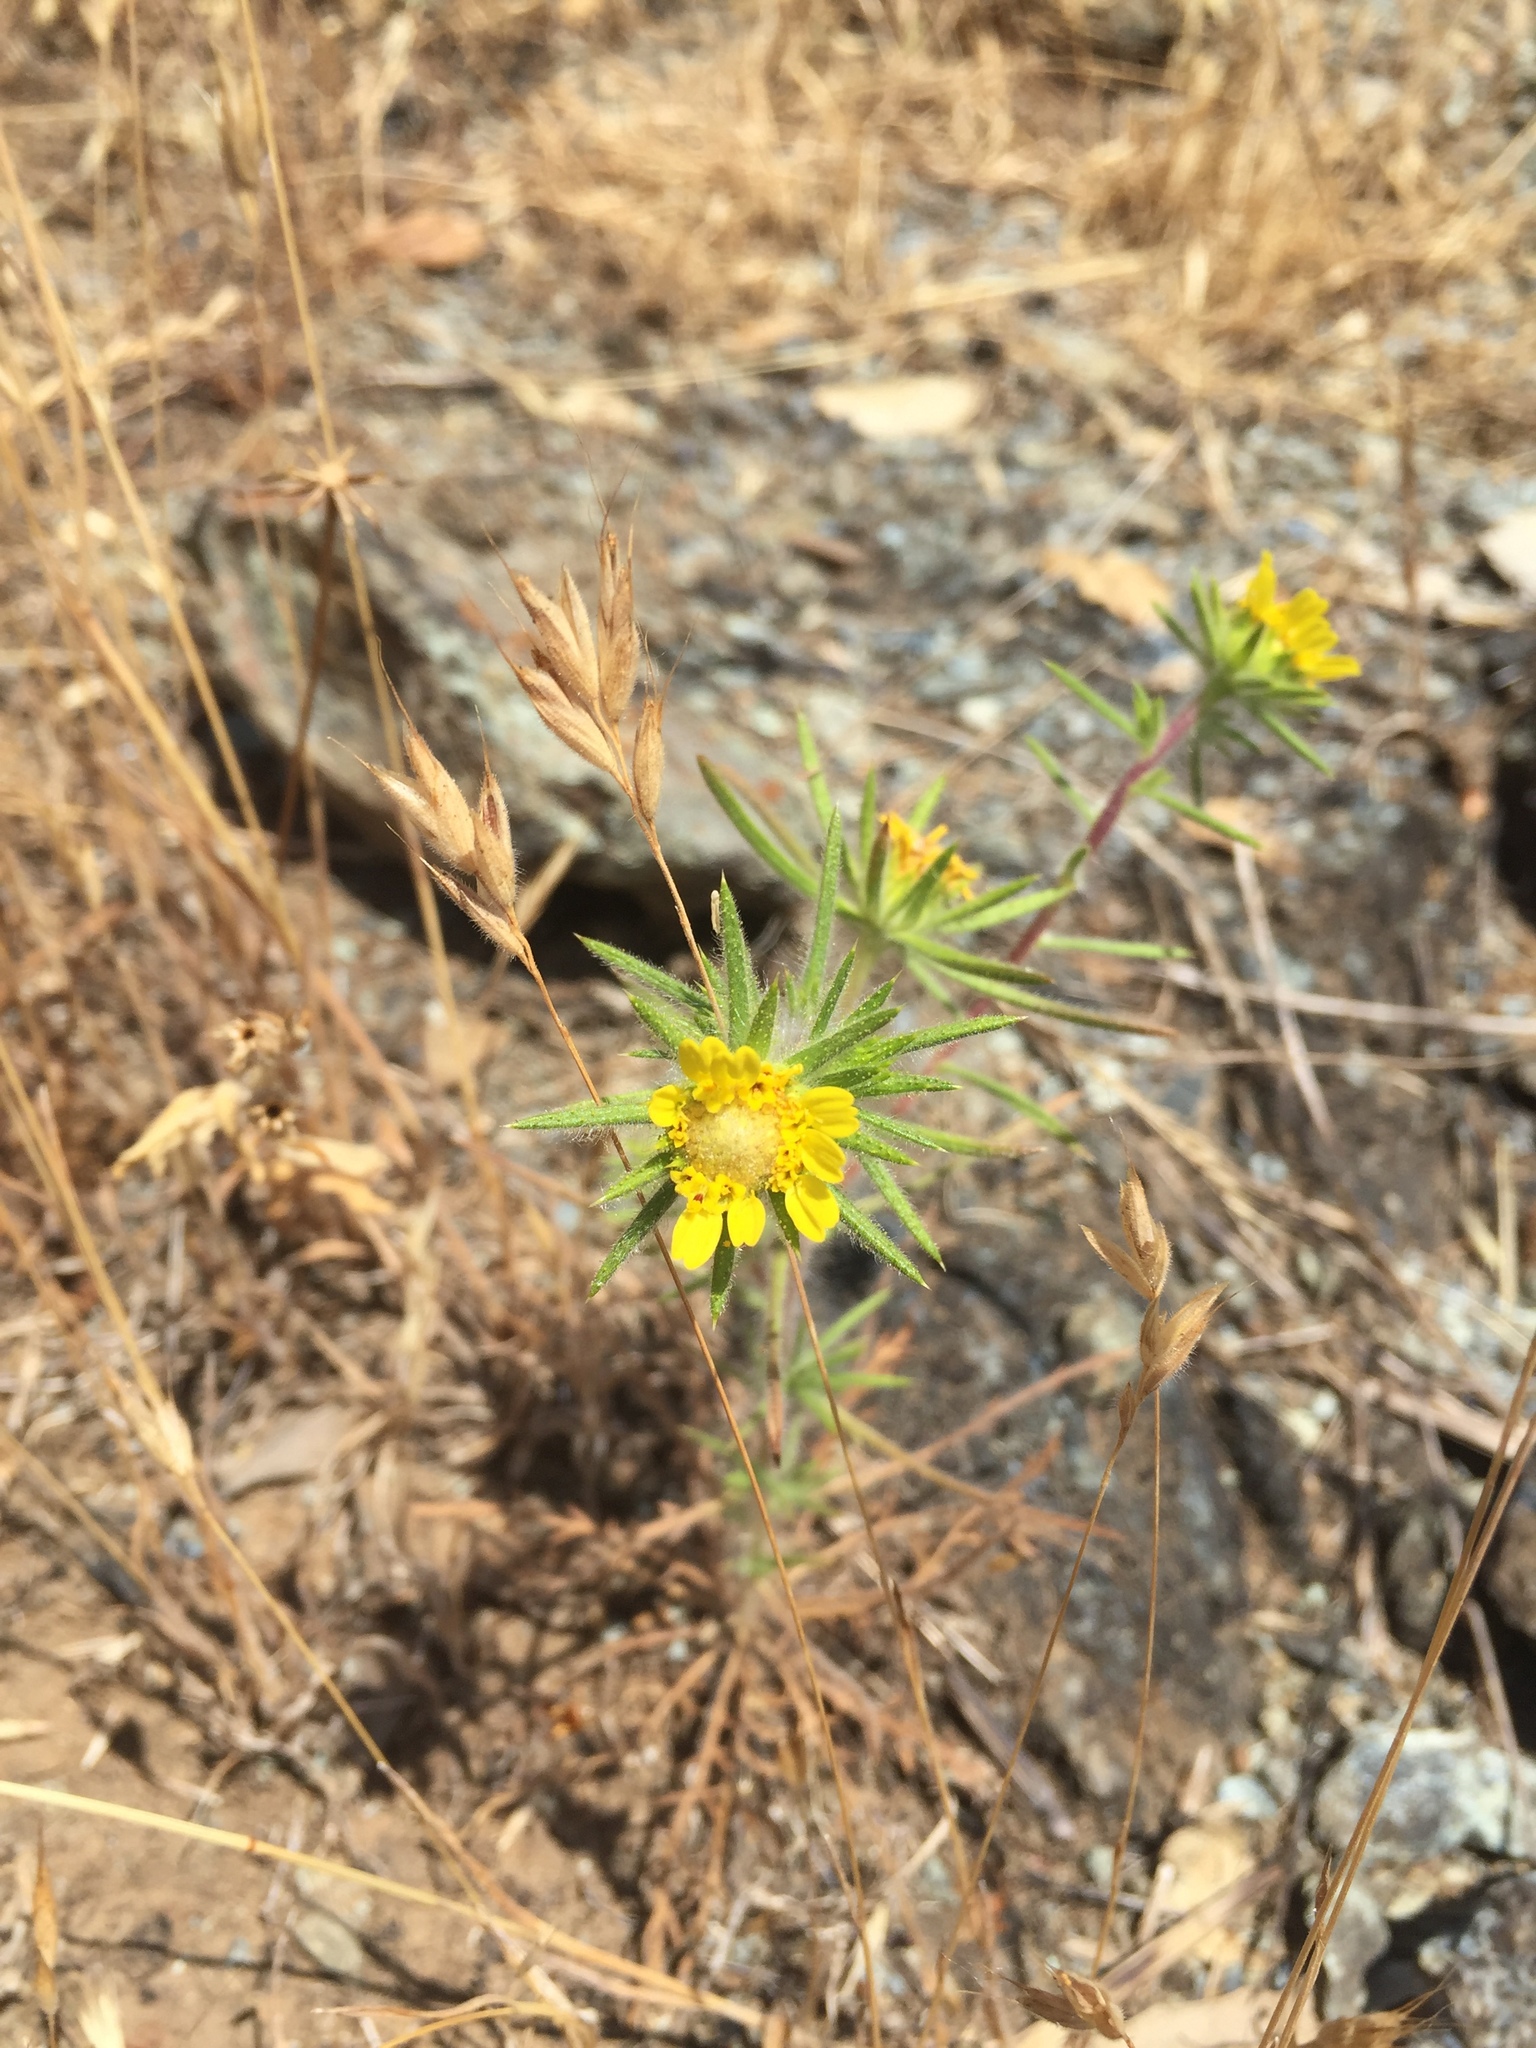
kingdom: Plantae
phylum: Tracheophyta
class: Magnoliopsida
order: Asterales
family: Asteraceae
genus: Centromadia
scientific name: Centromadia fitchii
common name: Fitch's spikeweed
